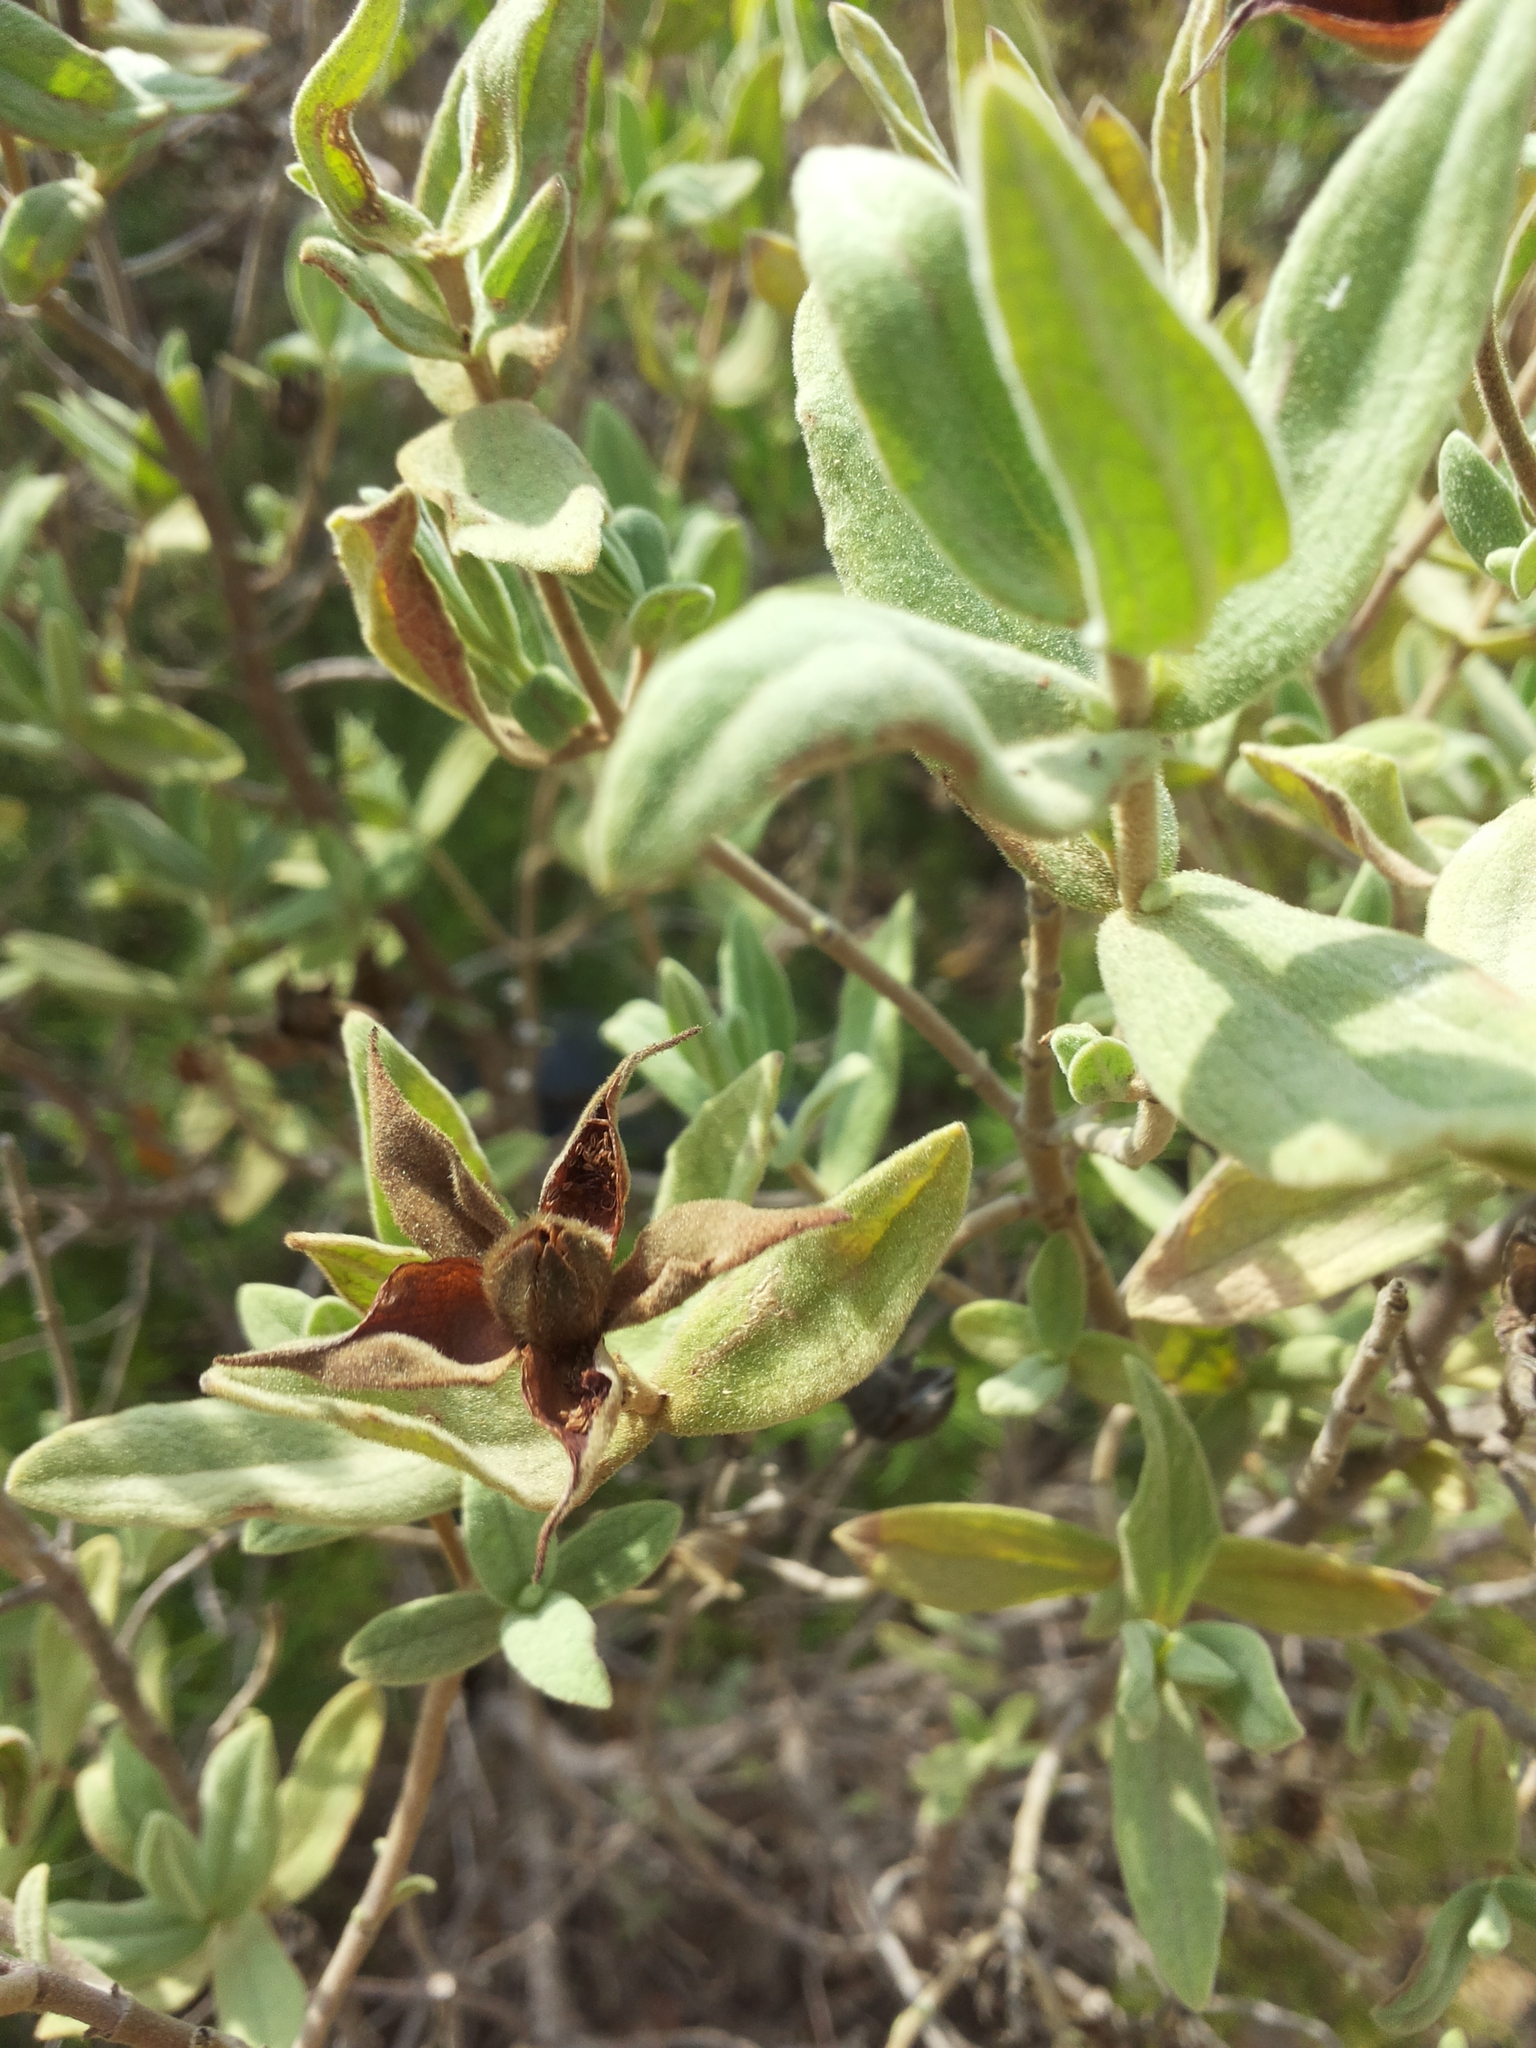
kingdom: Plantae
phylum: Tracheophyta
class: Magnoliopsida
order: Malvales
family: Cistaceae
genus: Cistus
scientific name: Cistus albidus
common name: White-leaf rock-rose
